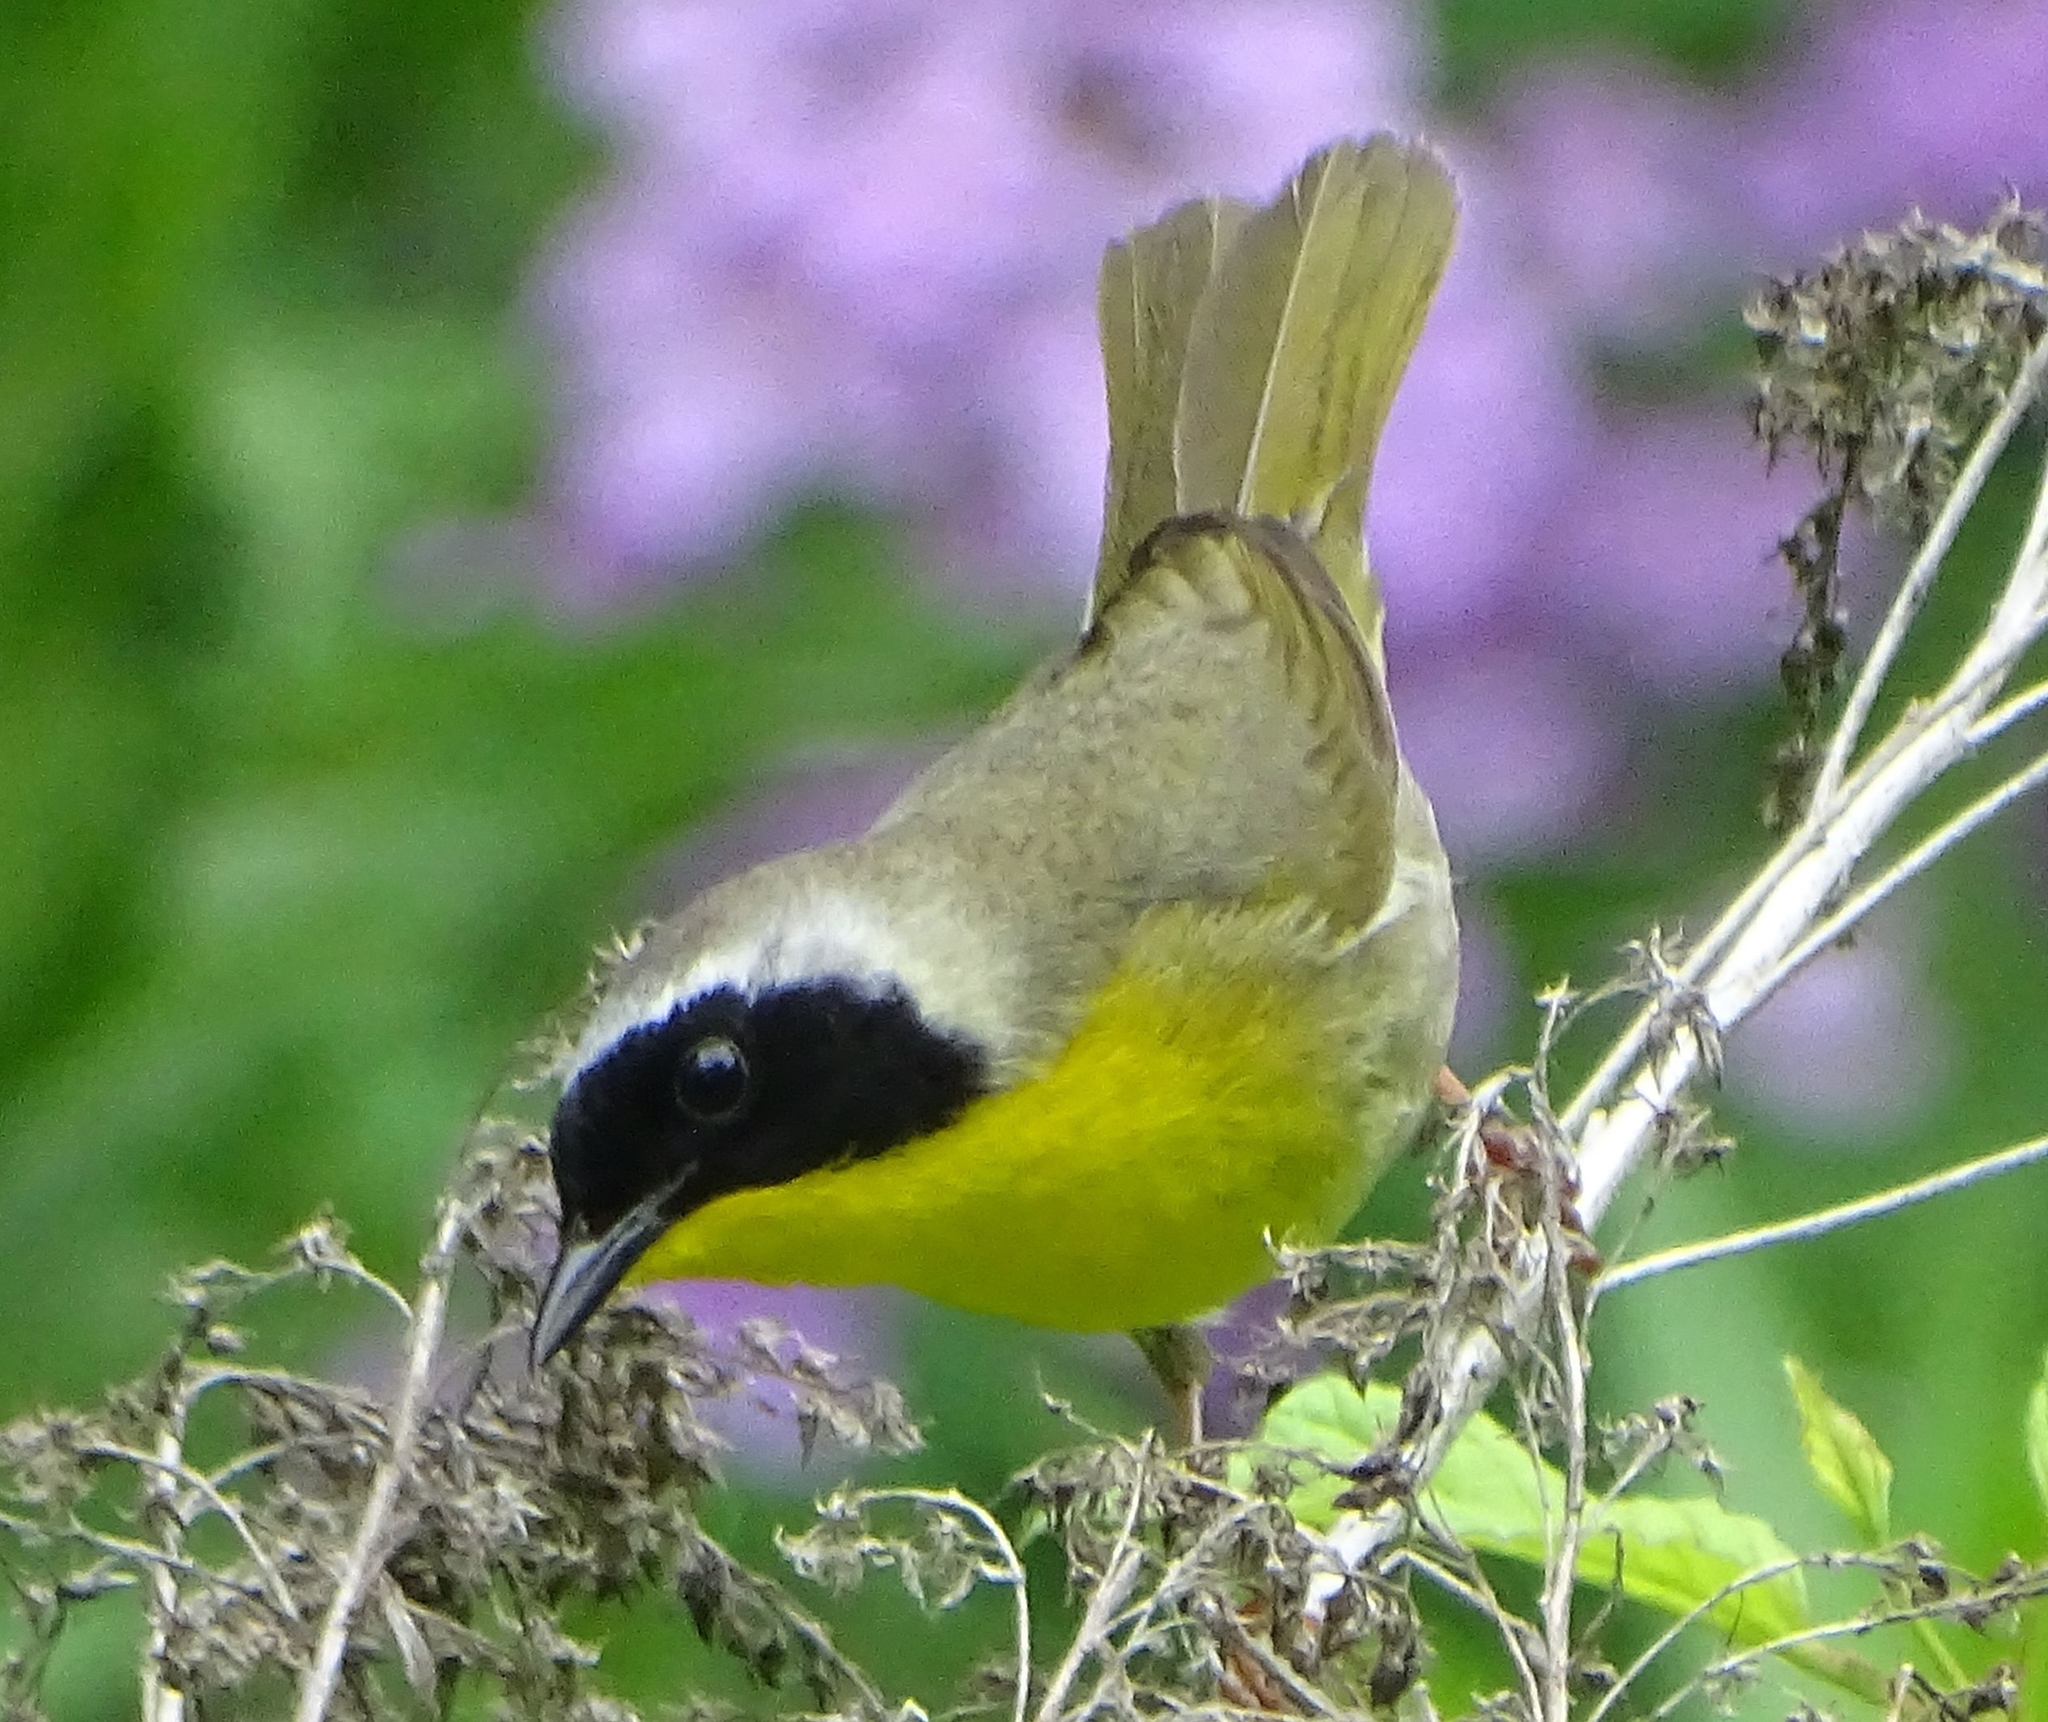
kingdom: Animalia
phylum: Chordata
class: Aves
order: Passeriformes
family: Parulidae
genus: Geothlypis
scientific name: Geothlypis trichas
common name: Common yellowthroat
